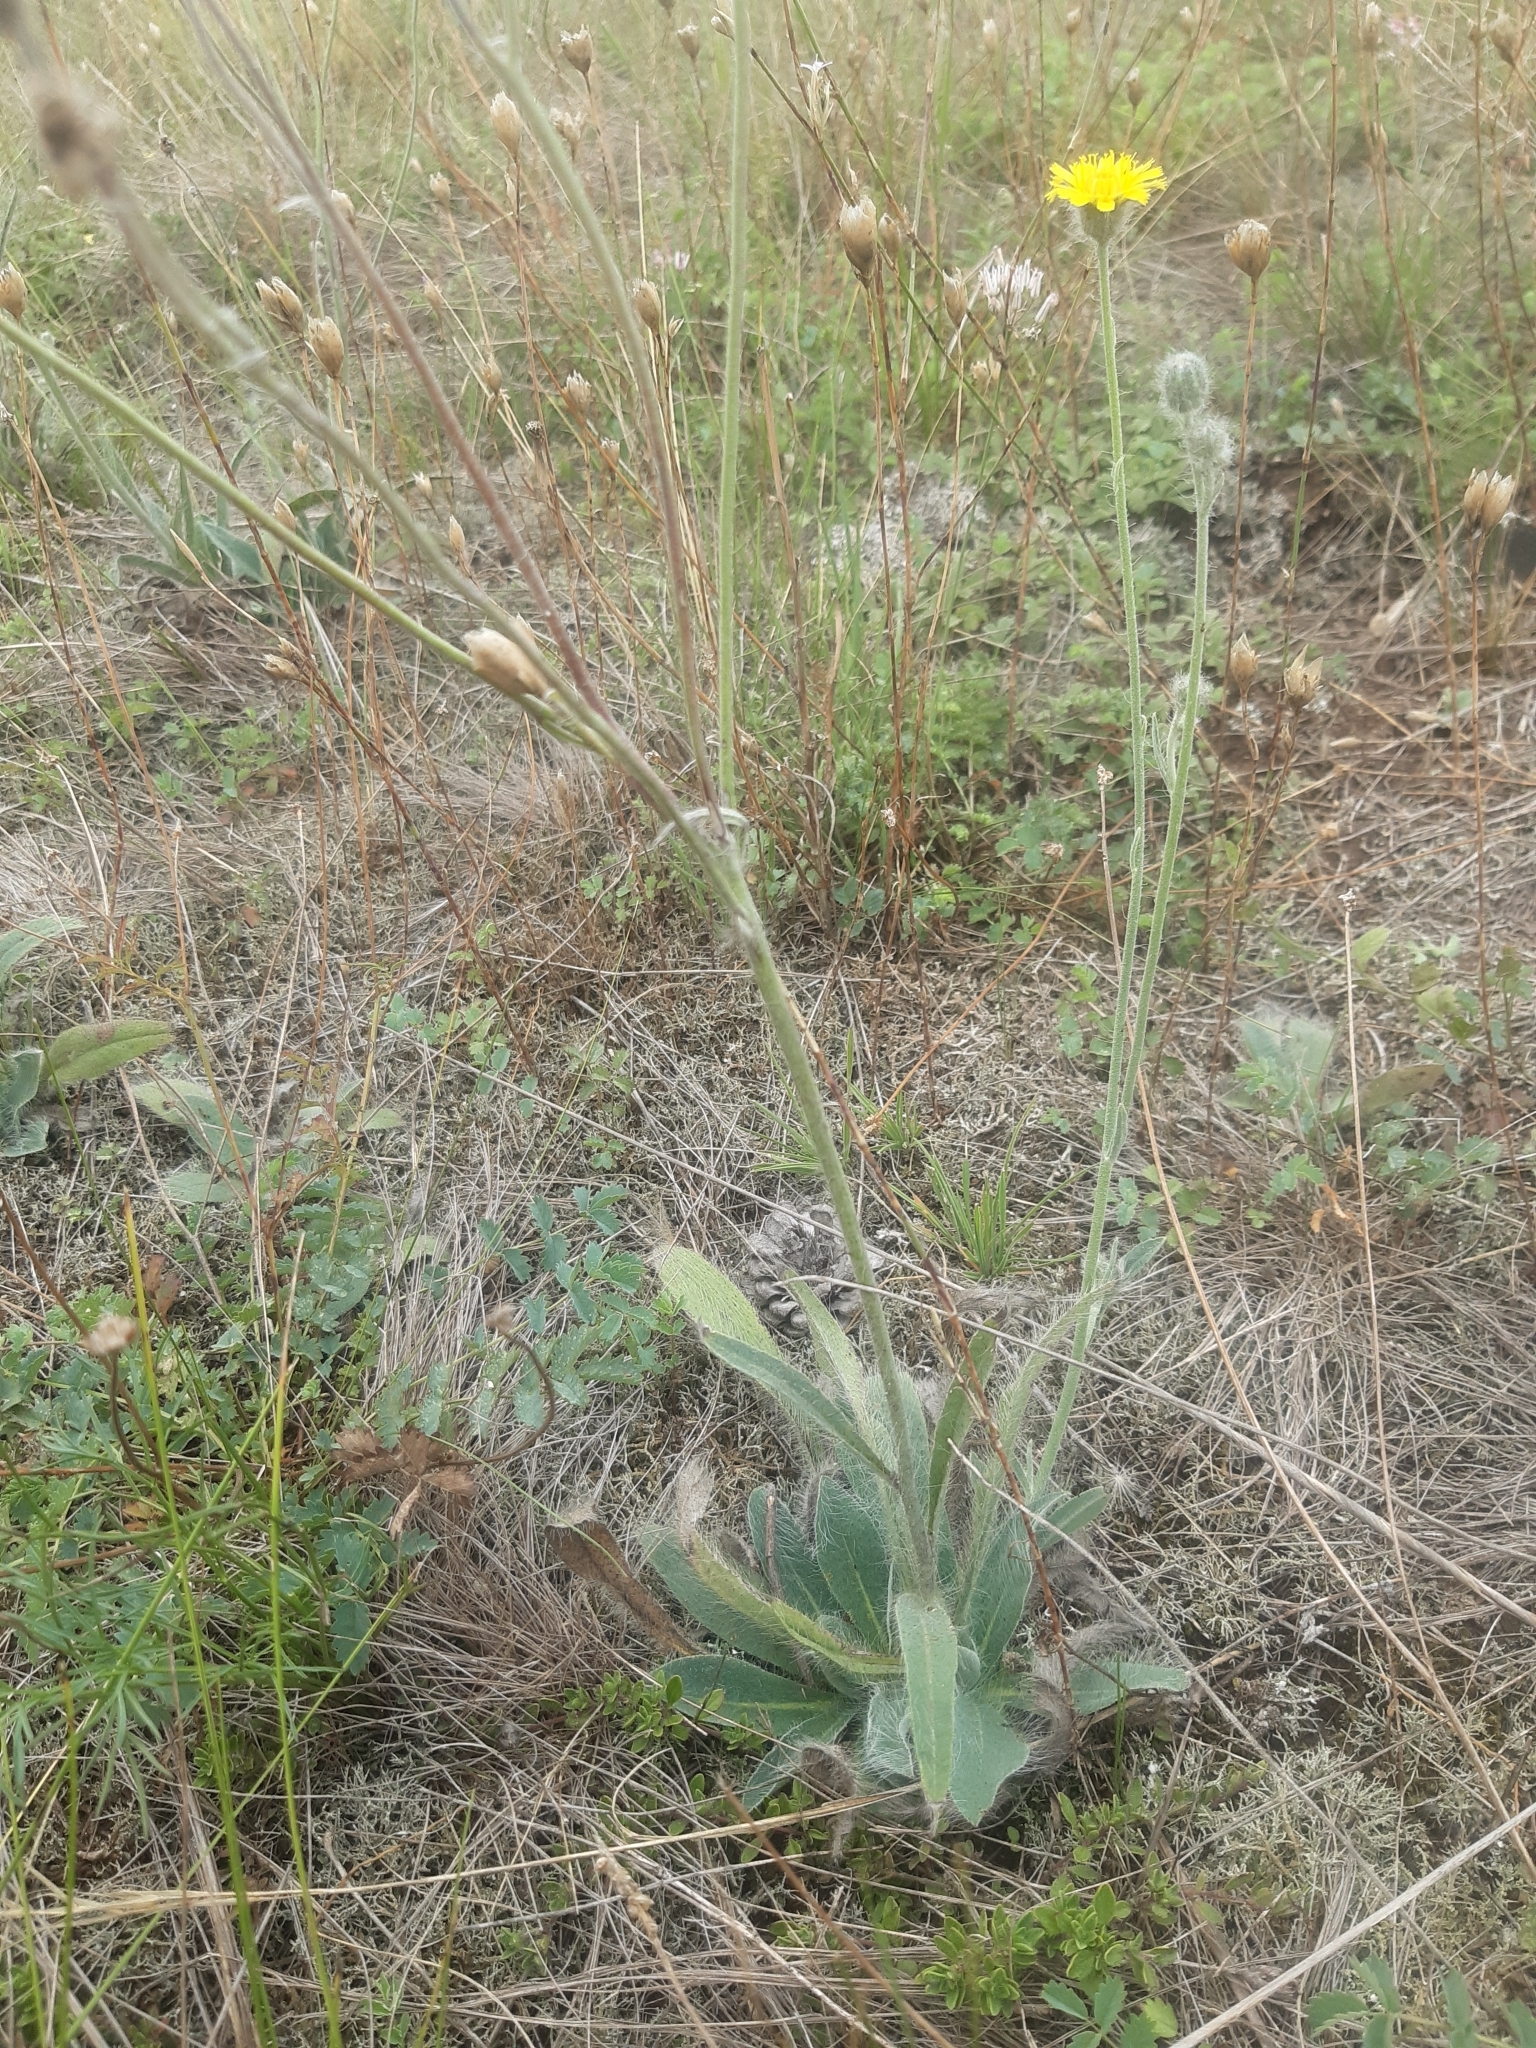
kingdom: Plantae
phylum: Tracheophyta
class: Magnoliopsida
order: Asterales
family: Asteraceae
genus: Pilosella
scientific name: Pilosella echioides
